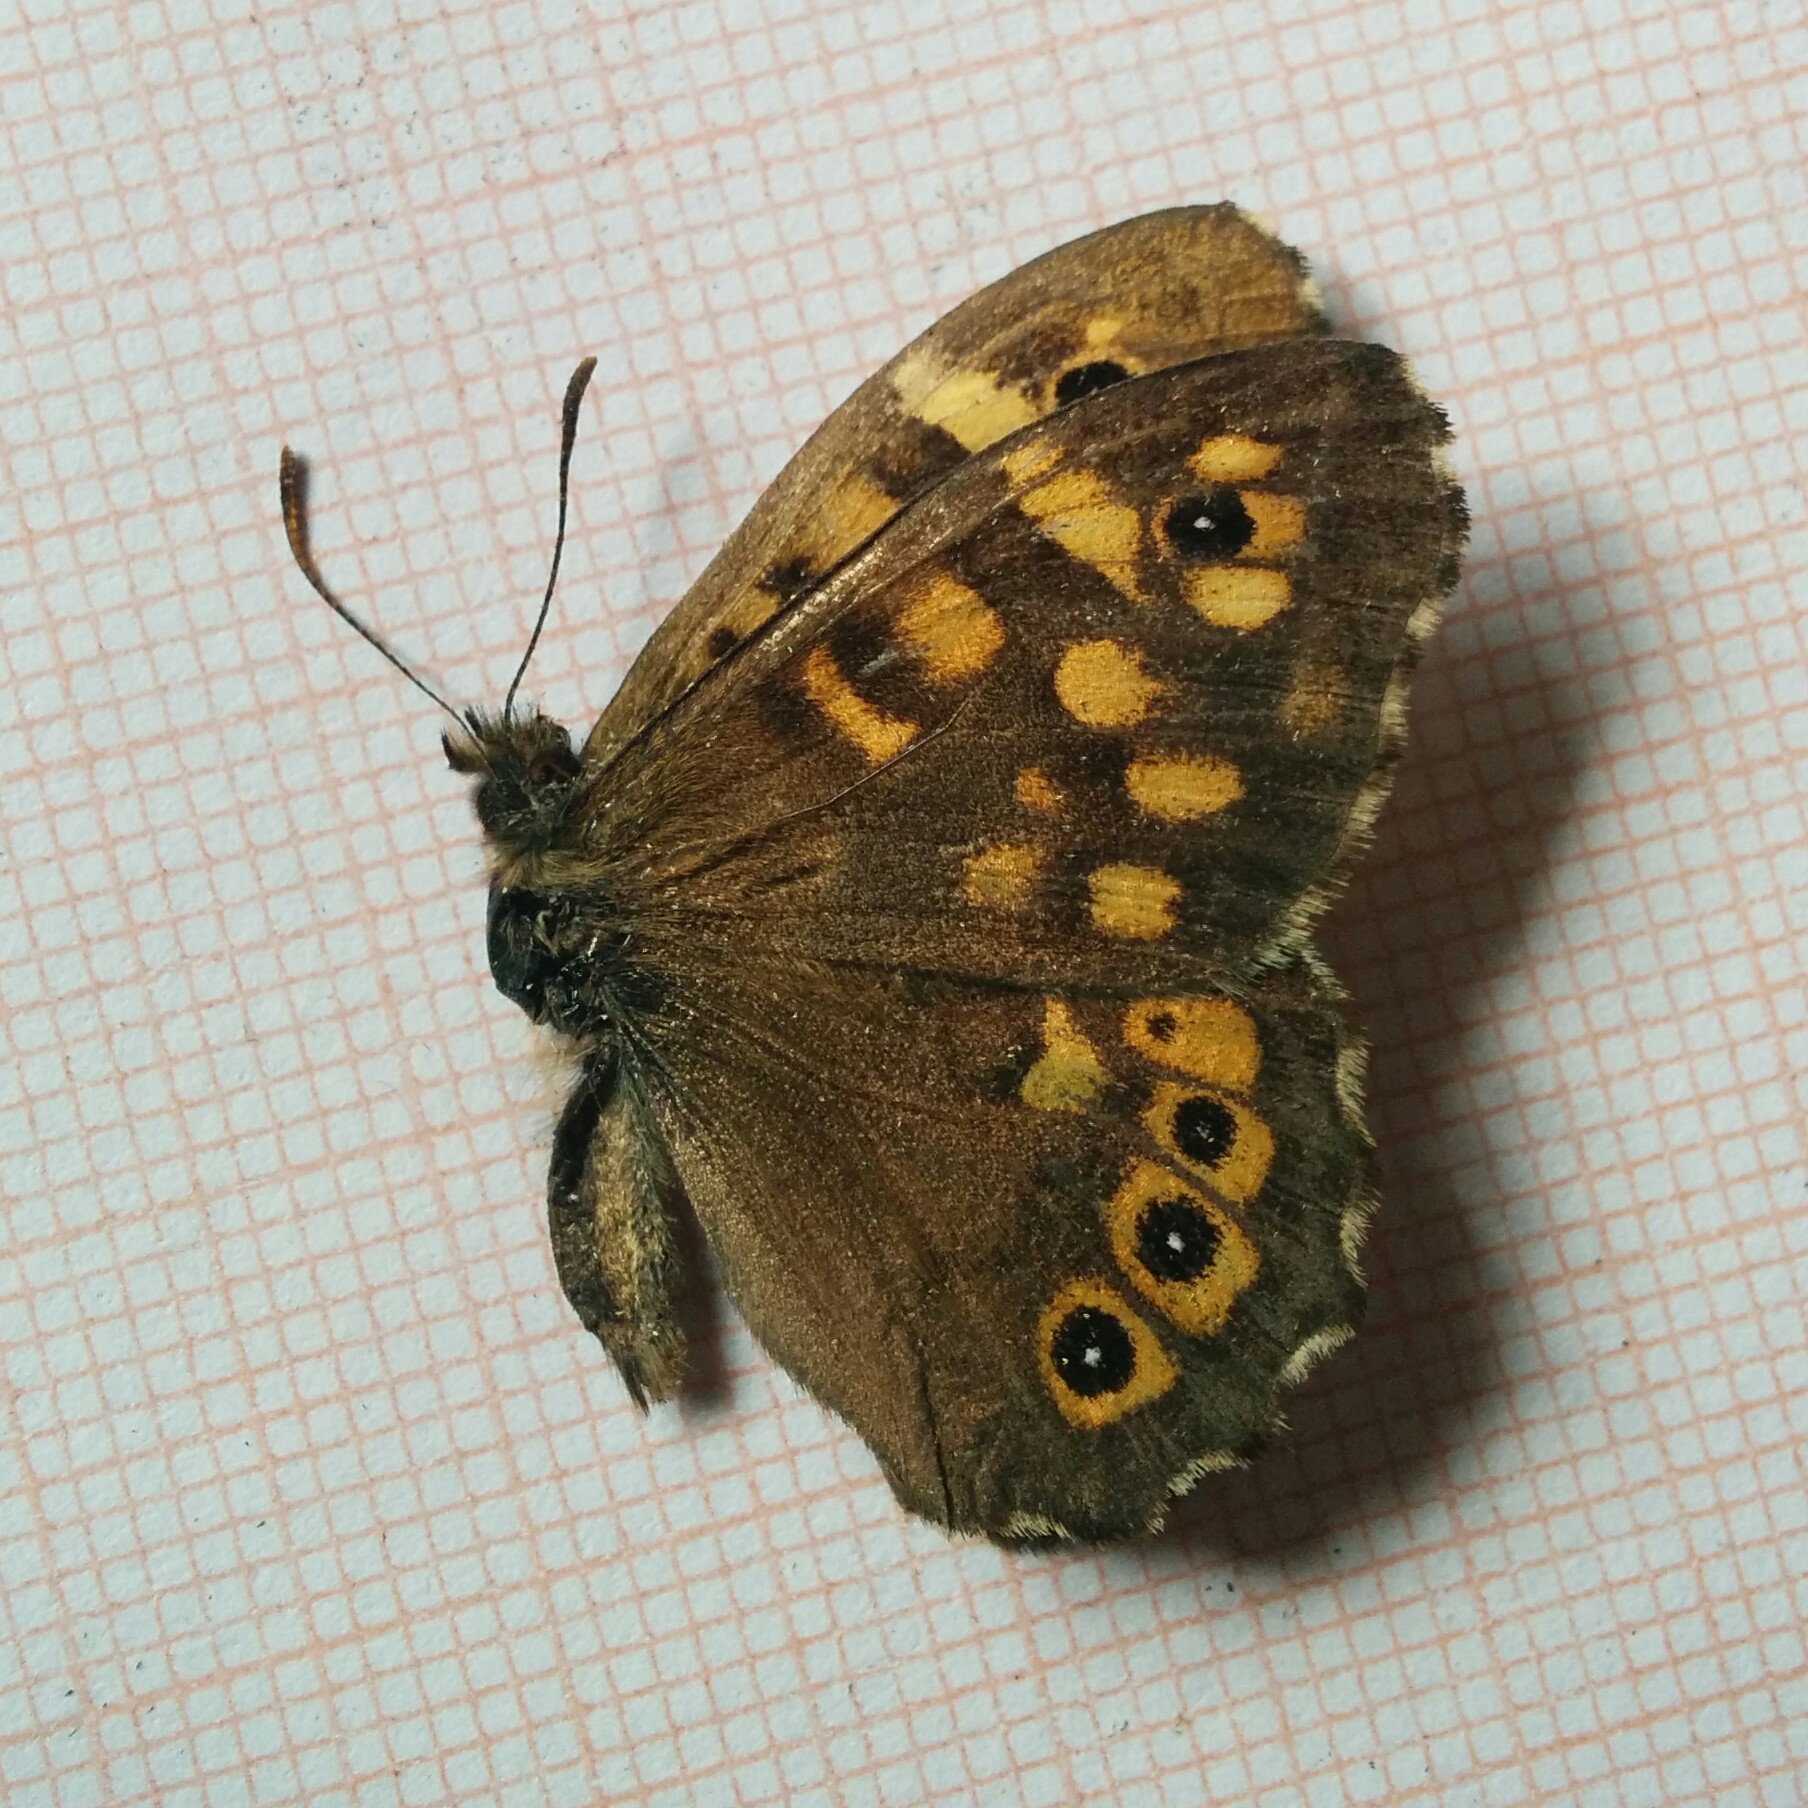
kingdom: Animalia
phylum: Arthropoda
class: Insecta
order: Lepidoptera
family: Nymphalidae
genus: Pararge
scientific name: Pararge aegeria
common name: Speckled wood
